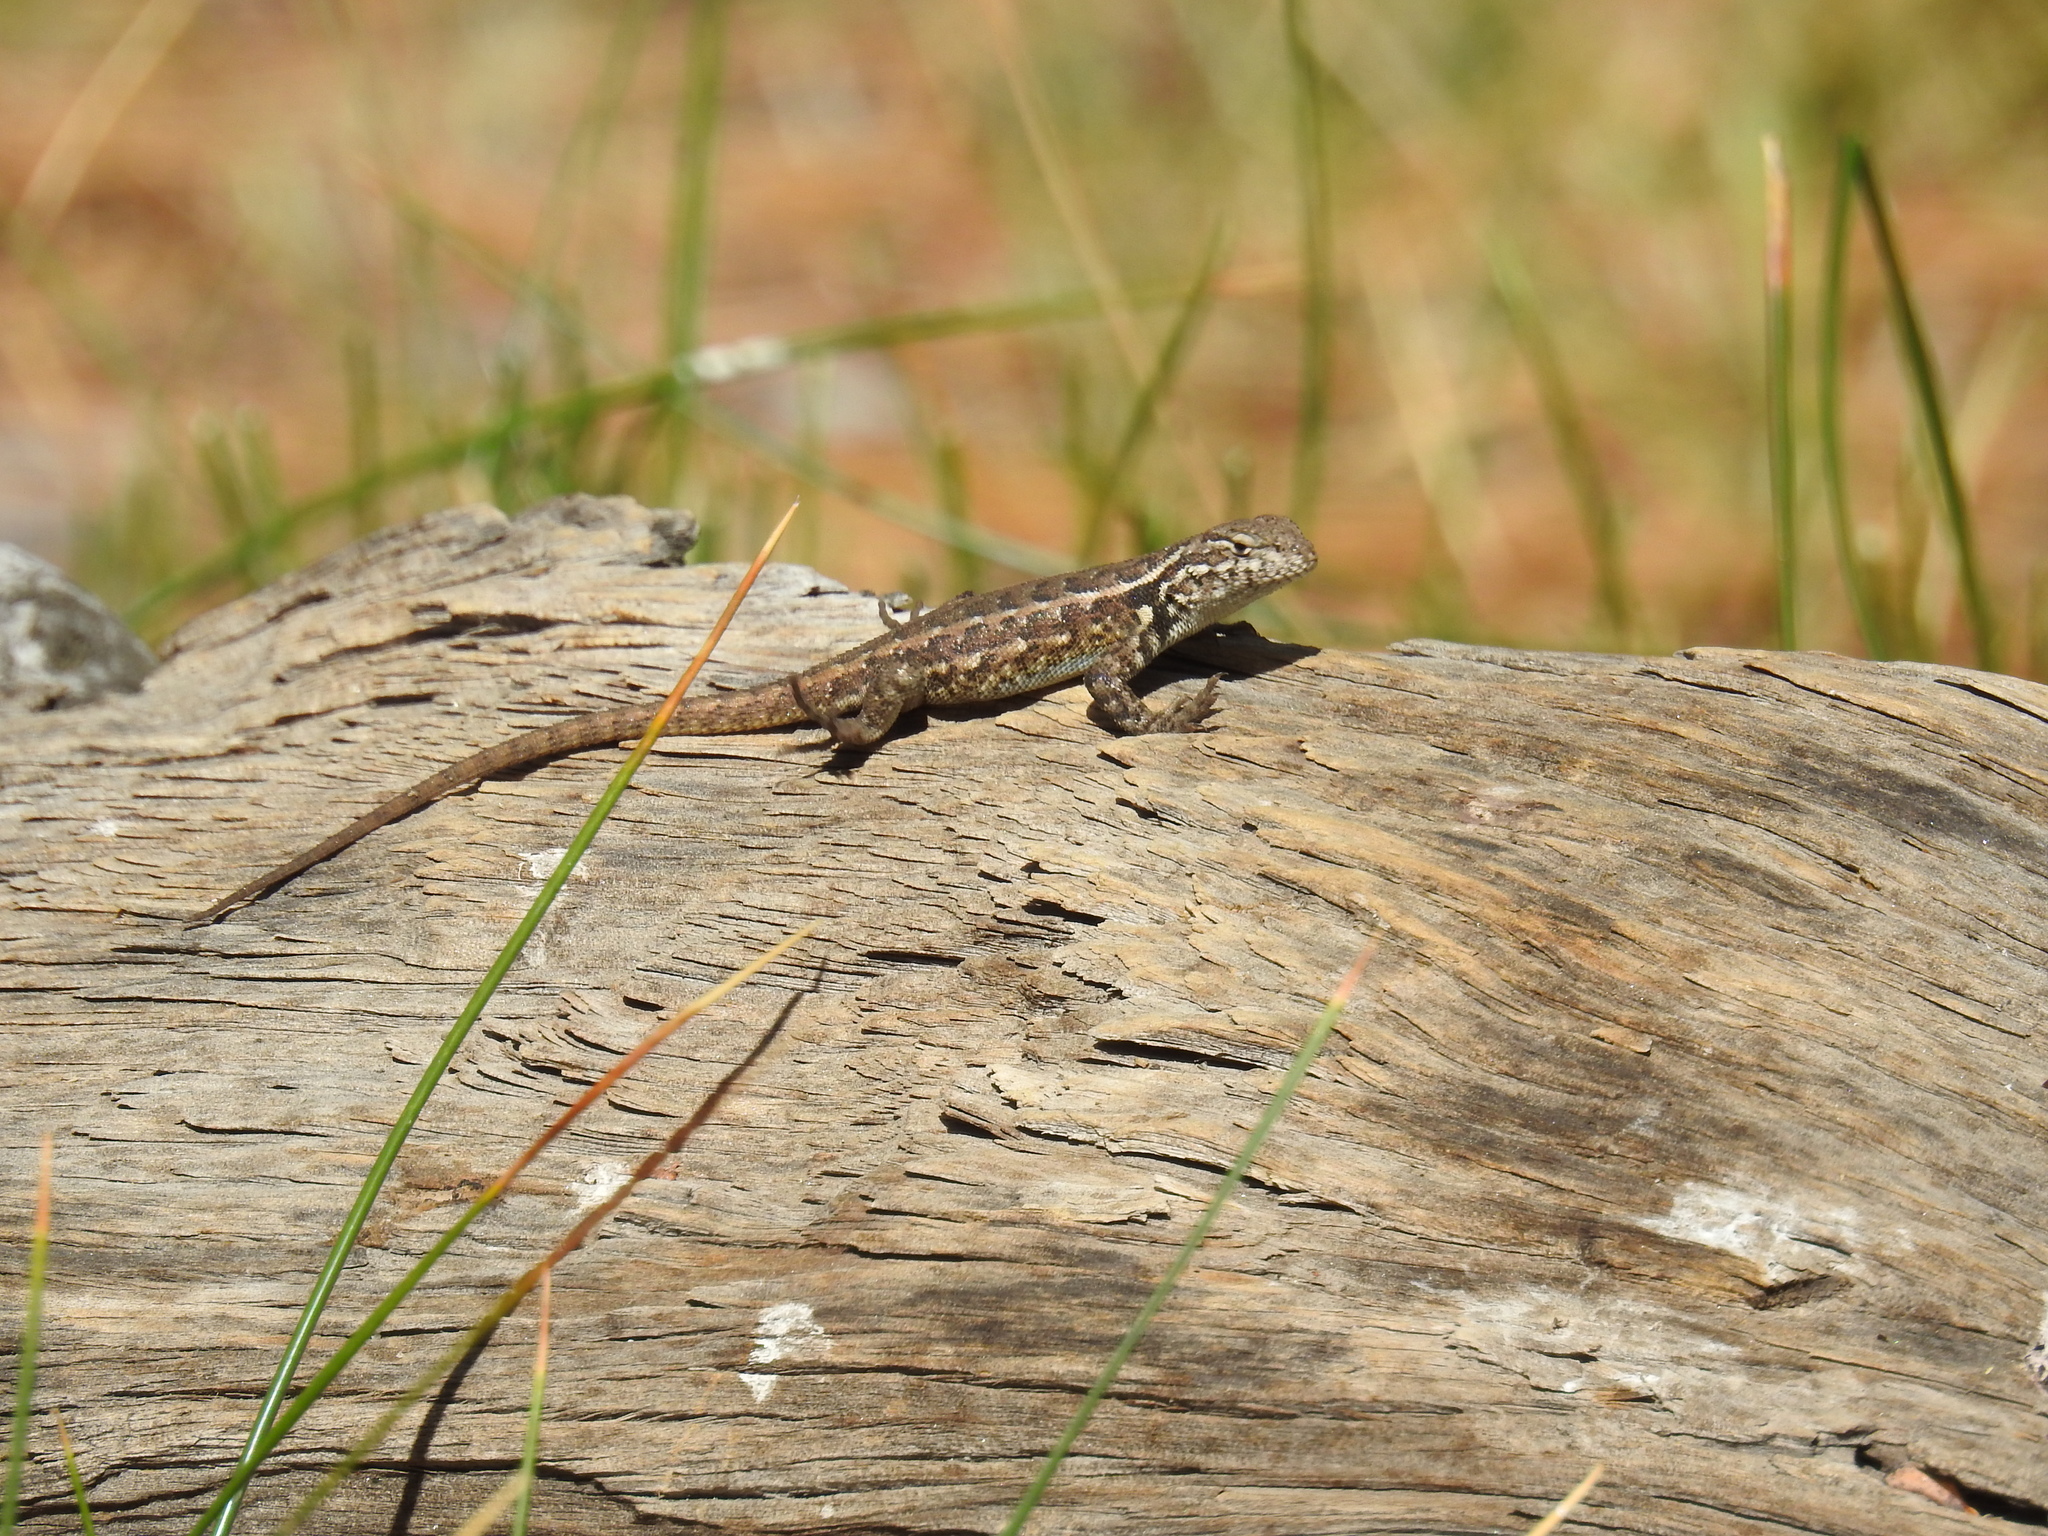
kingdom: Animalia
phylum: Chordata
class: Squamata
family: Phrynosomatidae
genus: Sceloporus
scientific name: Sceloporus graciosus
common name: Sagebrush lizard
